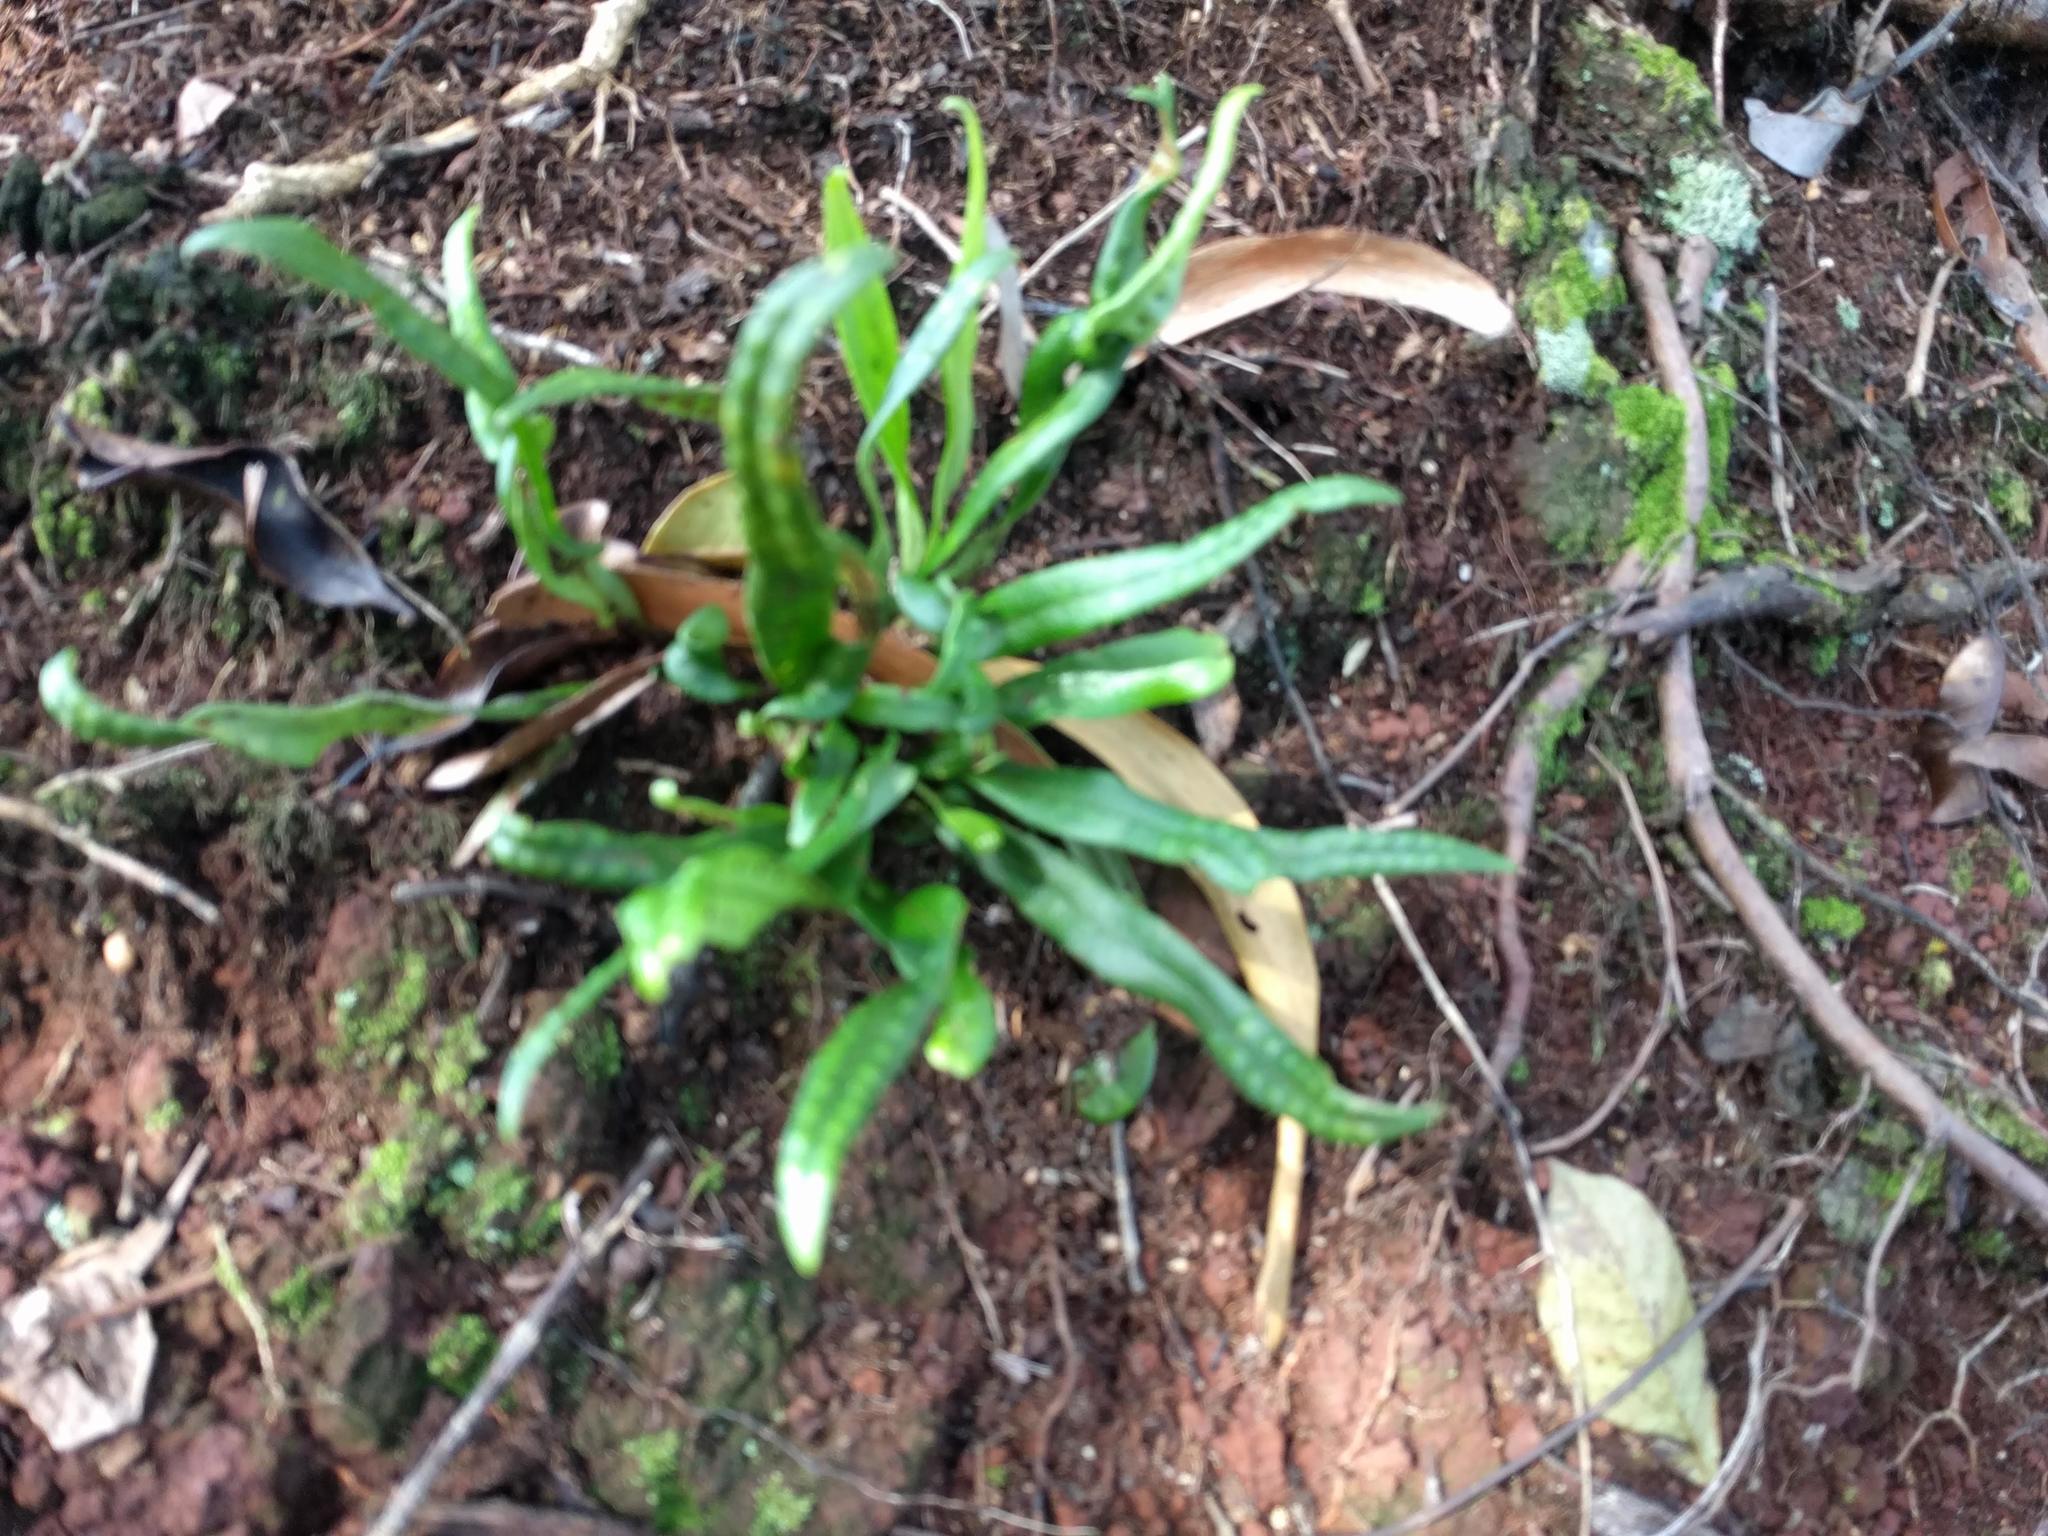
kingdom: Plantae
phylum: Tracheophyta
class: Polypodiopsida
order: Polypodiales
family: Polypodiaceae
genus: Lepisorus
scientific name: Lepisorus thunbergianus
